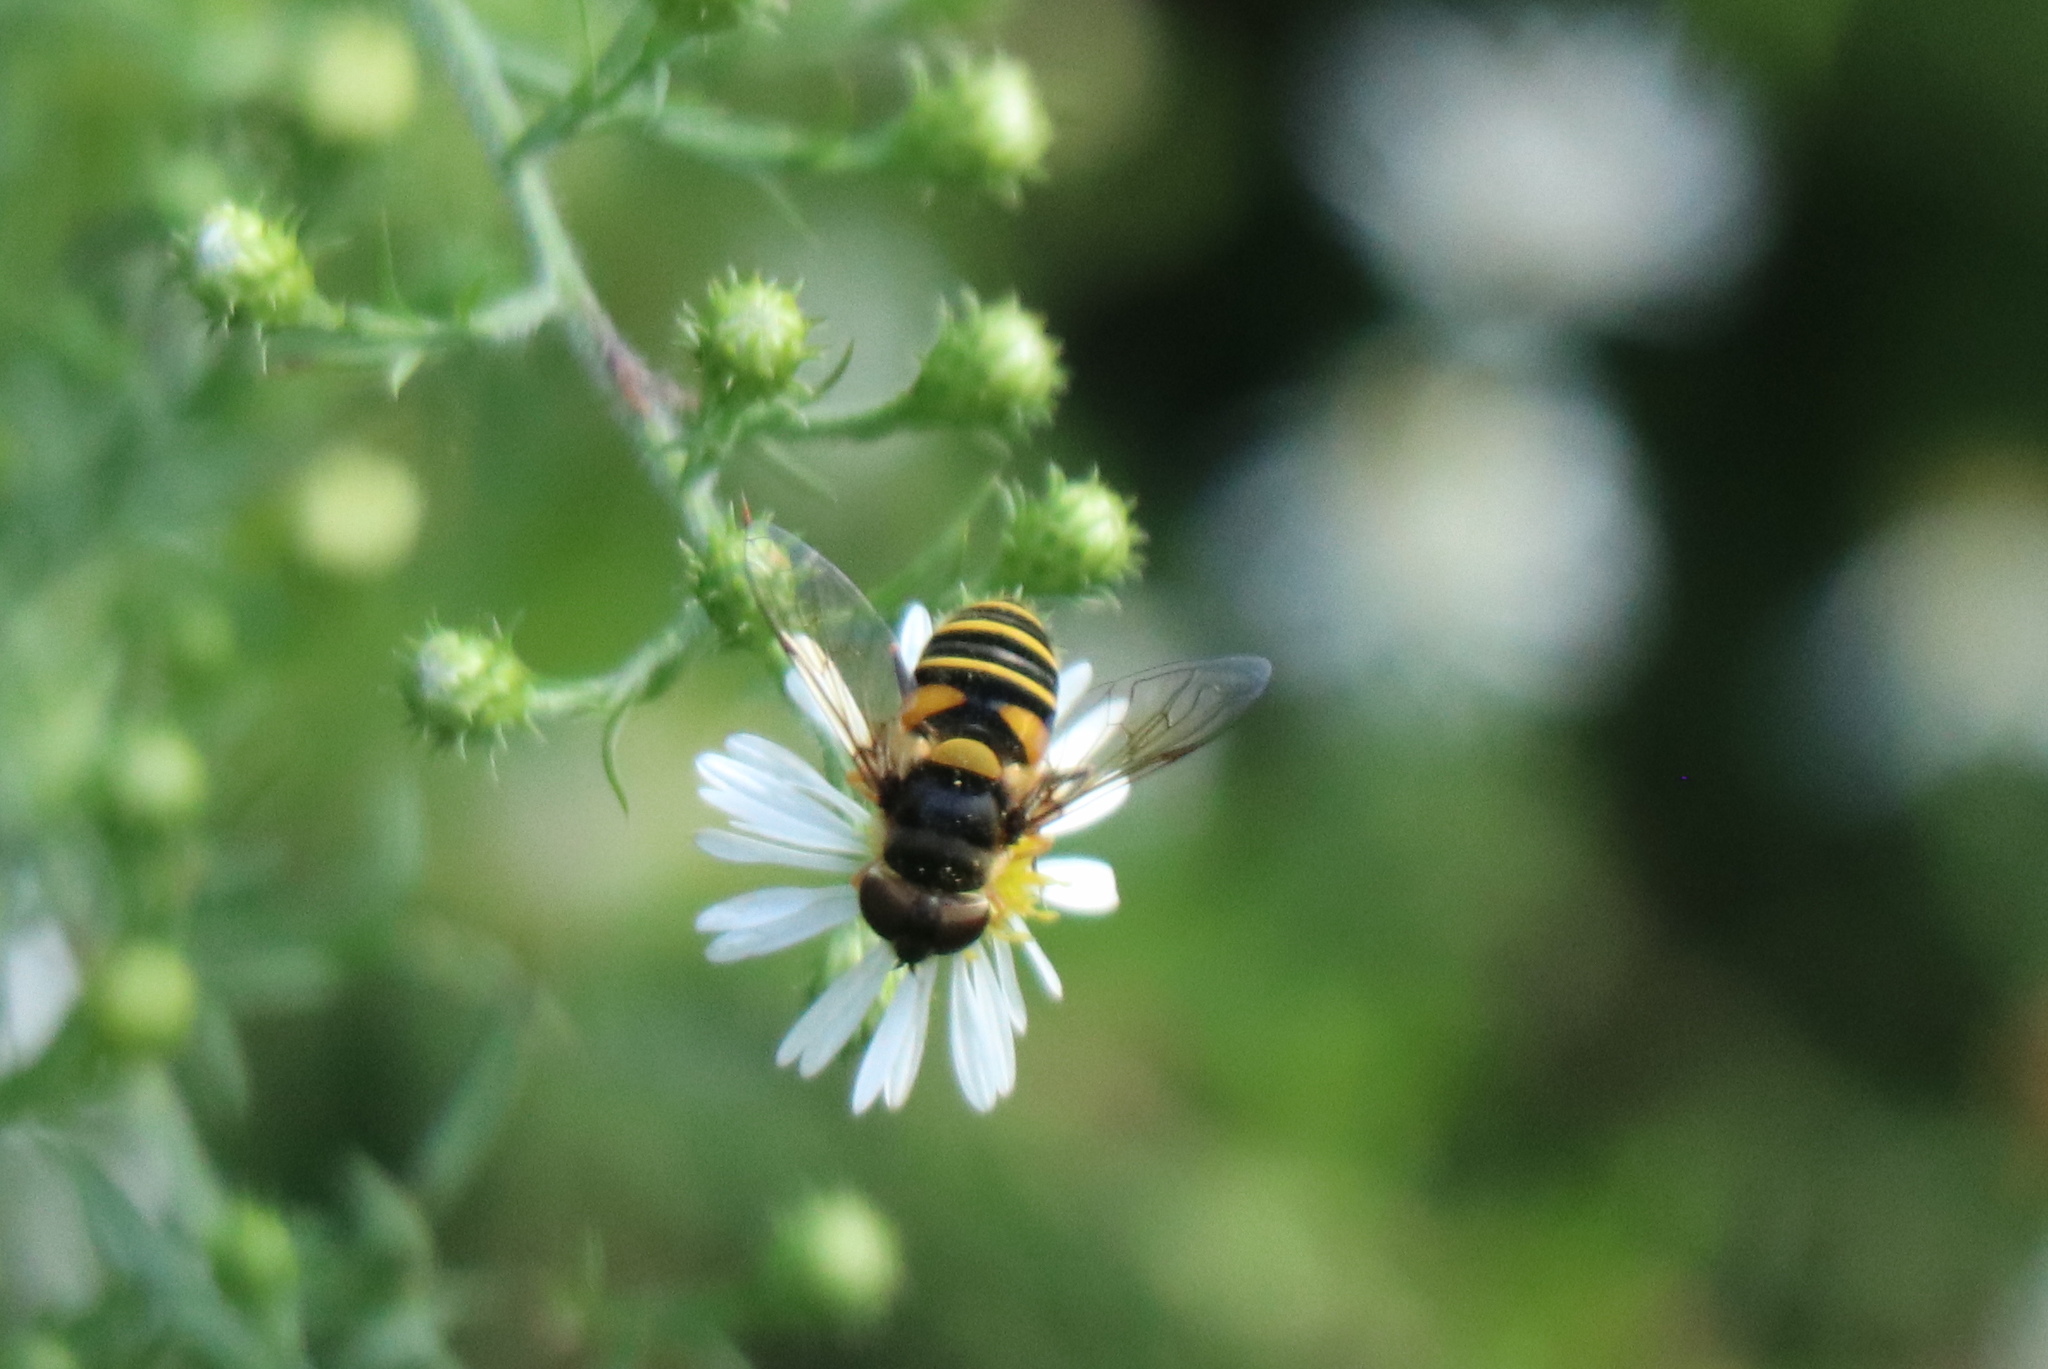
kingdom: Animalia
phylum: Arthropoda
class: Insecta
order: Diptera
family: Syrphidae
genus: Eristalis
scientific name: Eristalis transversa
